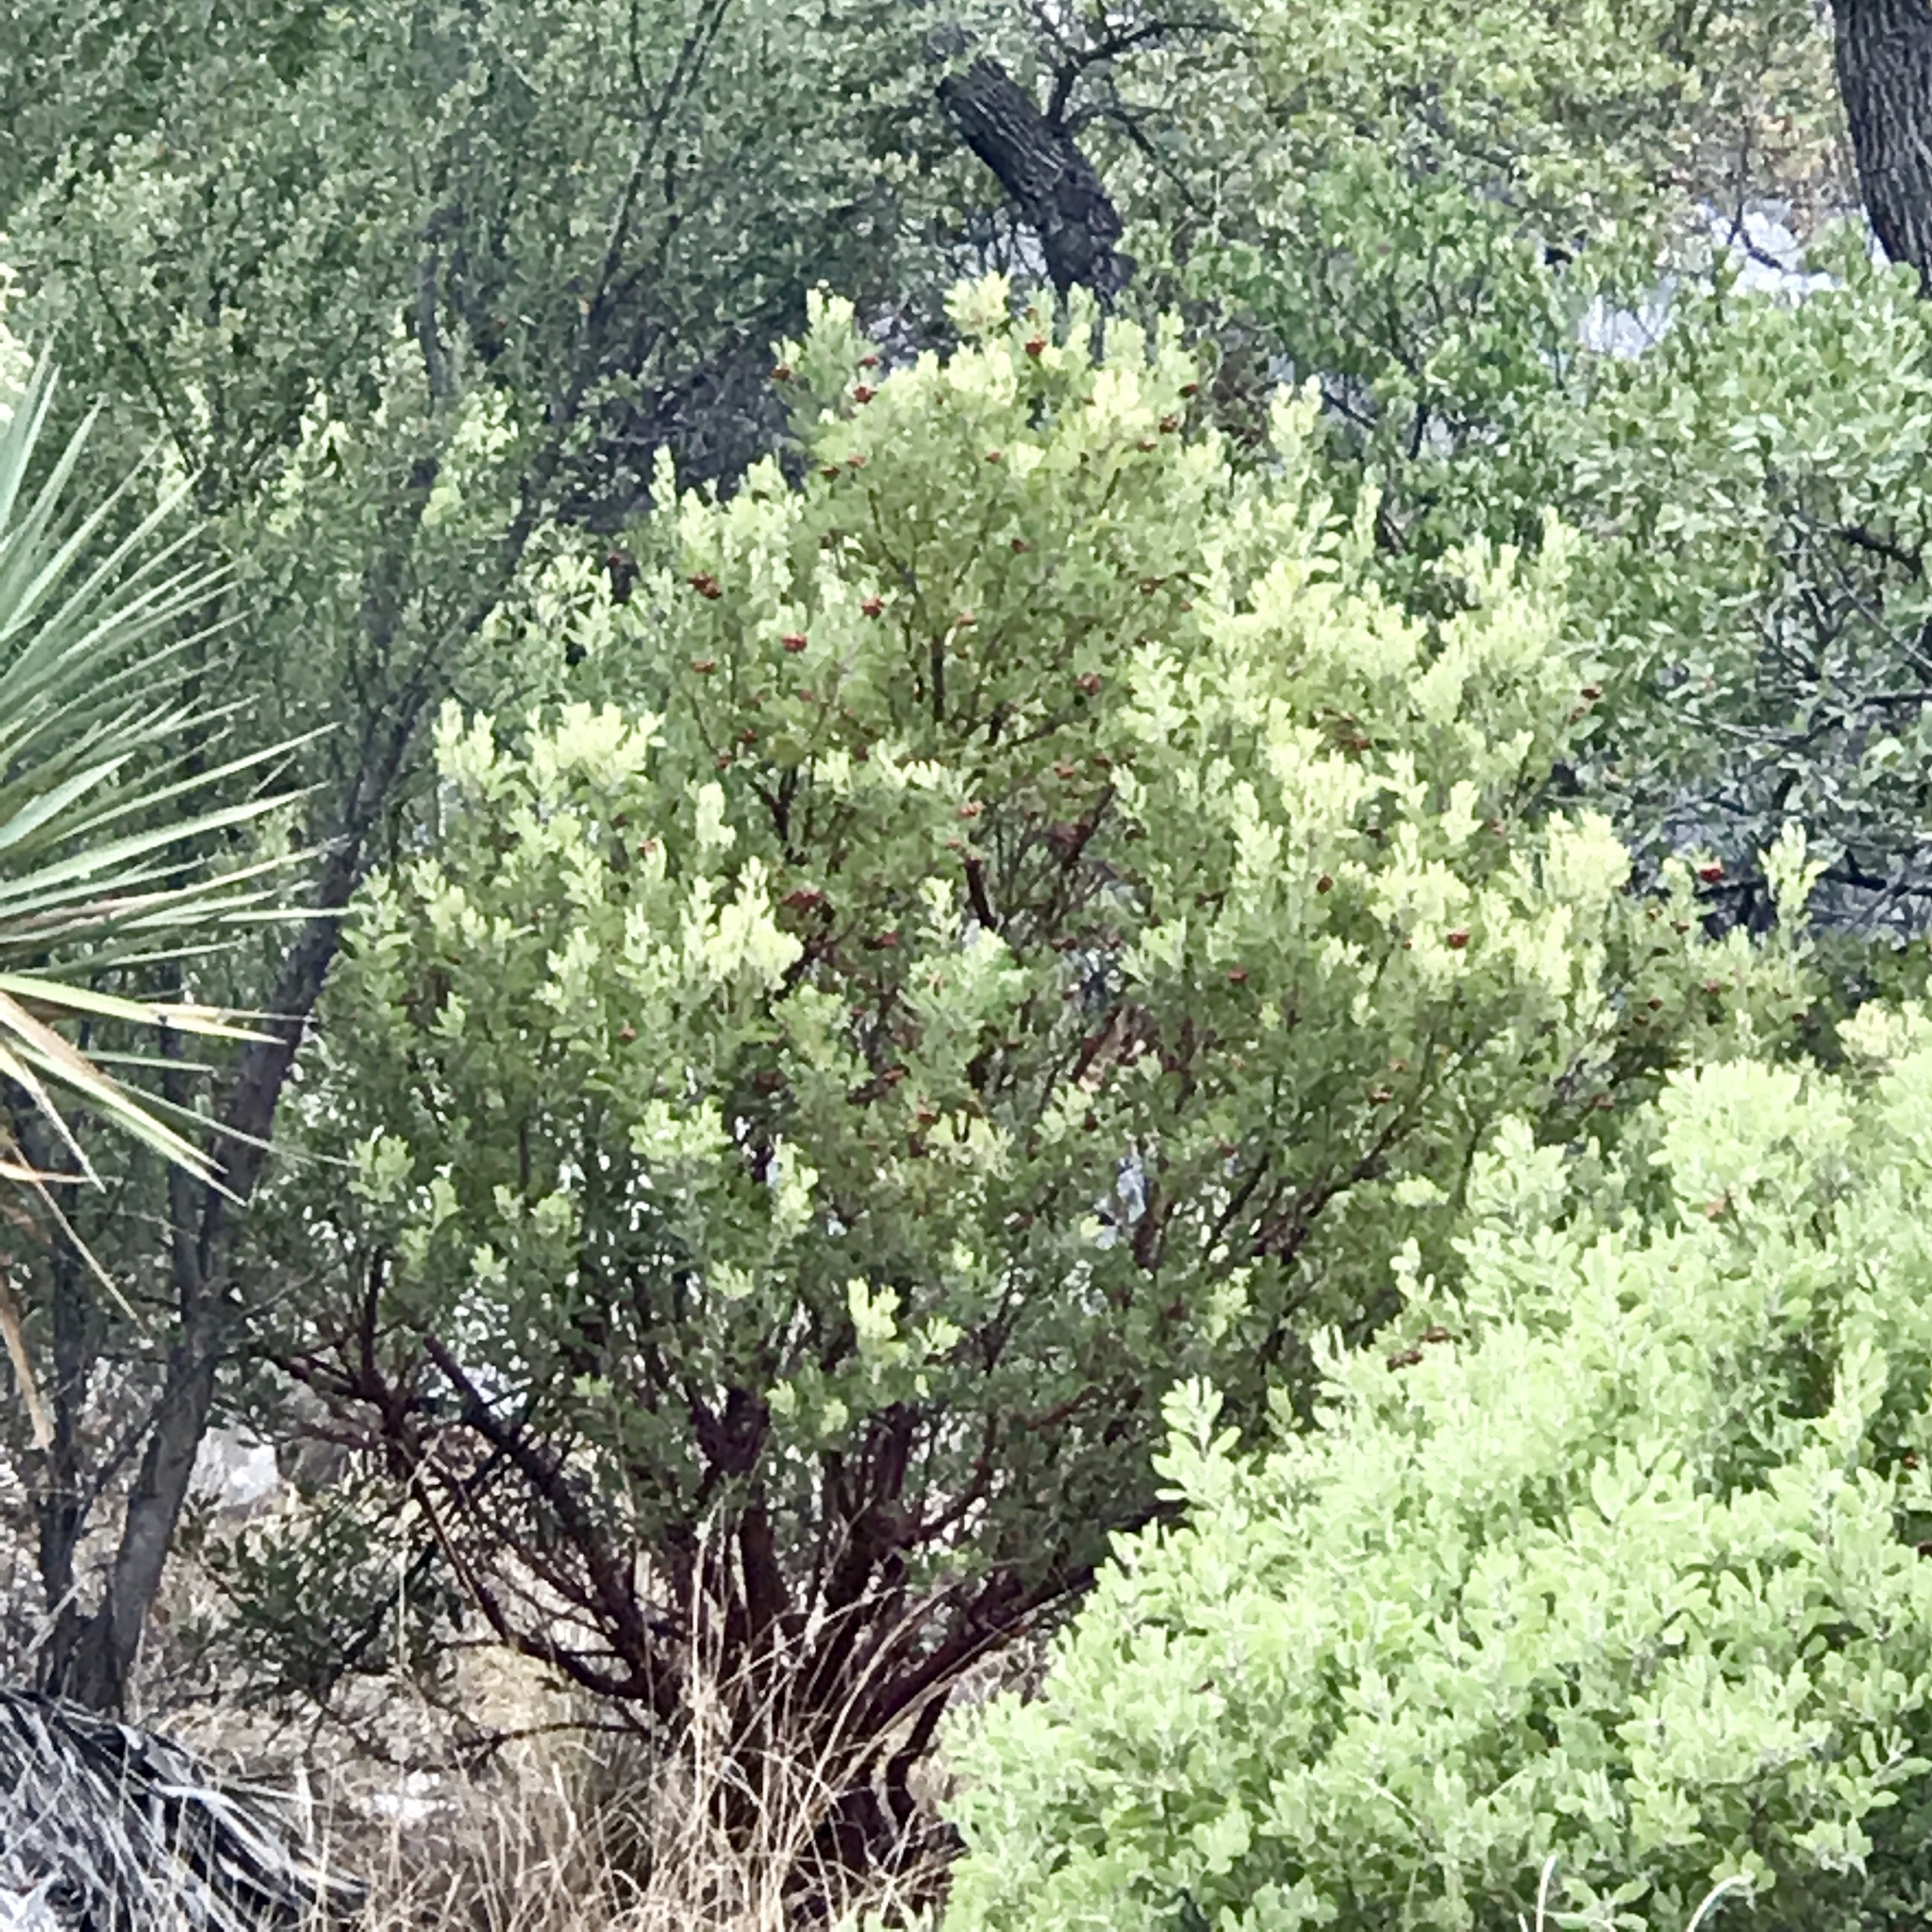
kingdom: Plantae
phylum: Tracheophyta
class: Magnoliopsida
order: Ericales
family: Ericaceae
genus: Arctostaphylos
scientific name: Arctostaphylos pungens
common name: Mexican manzanita
